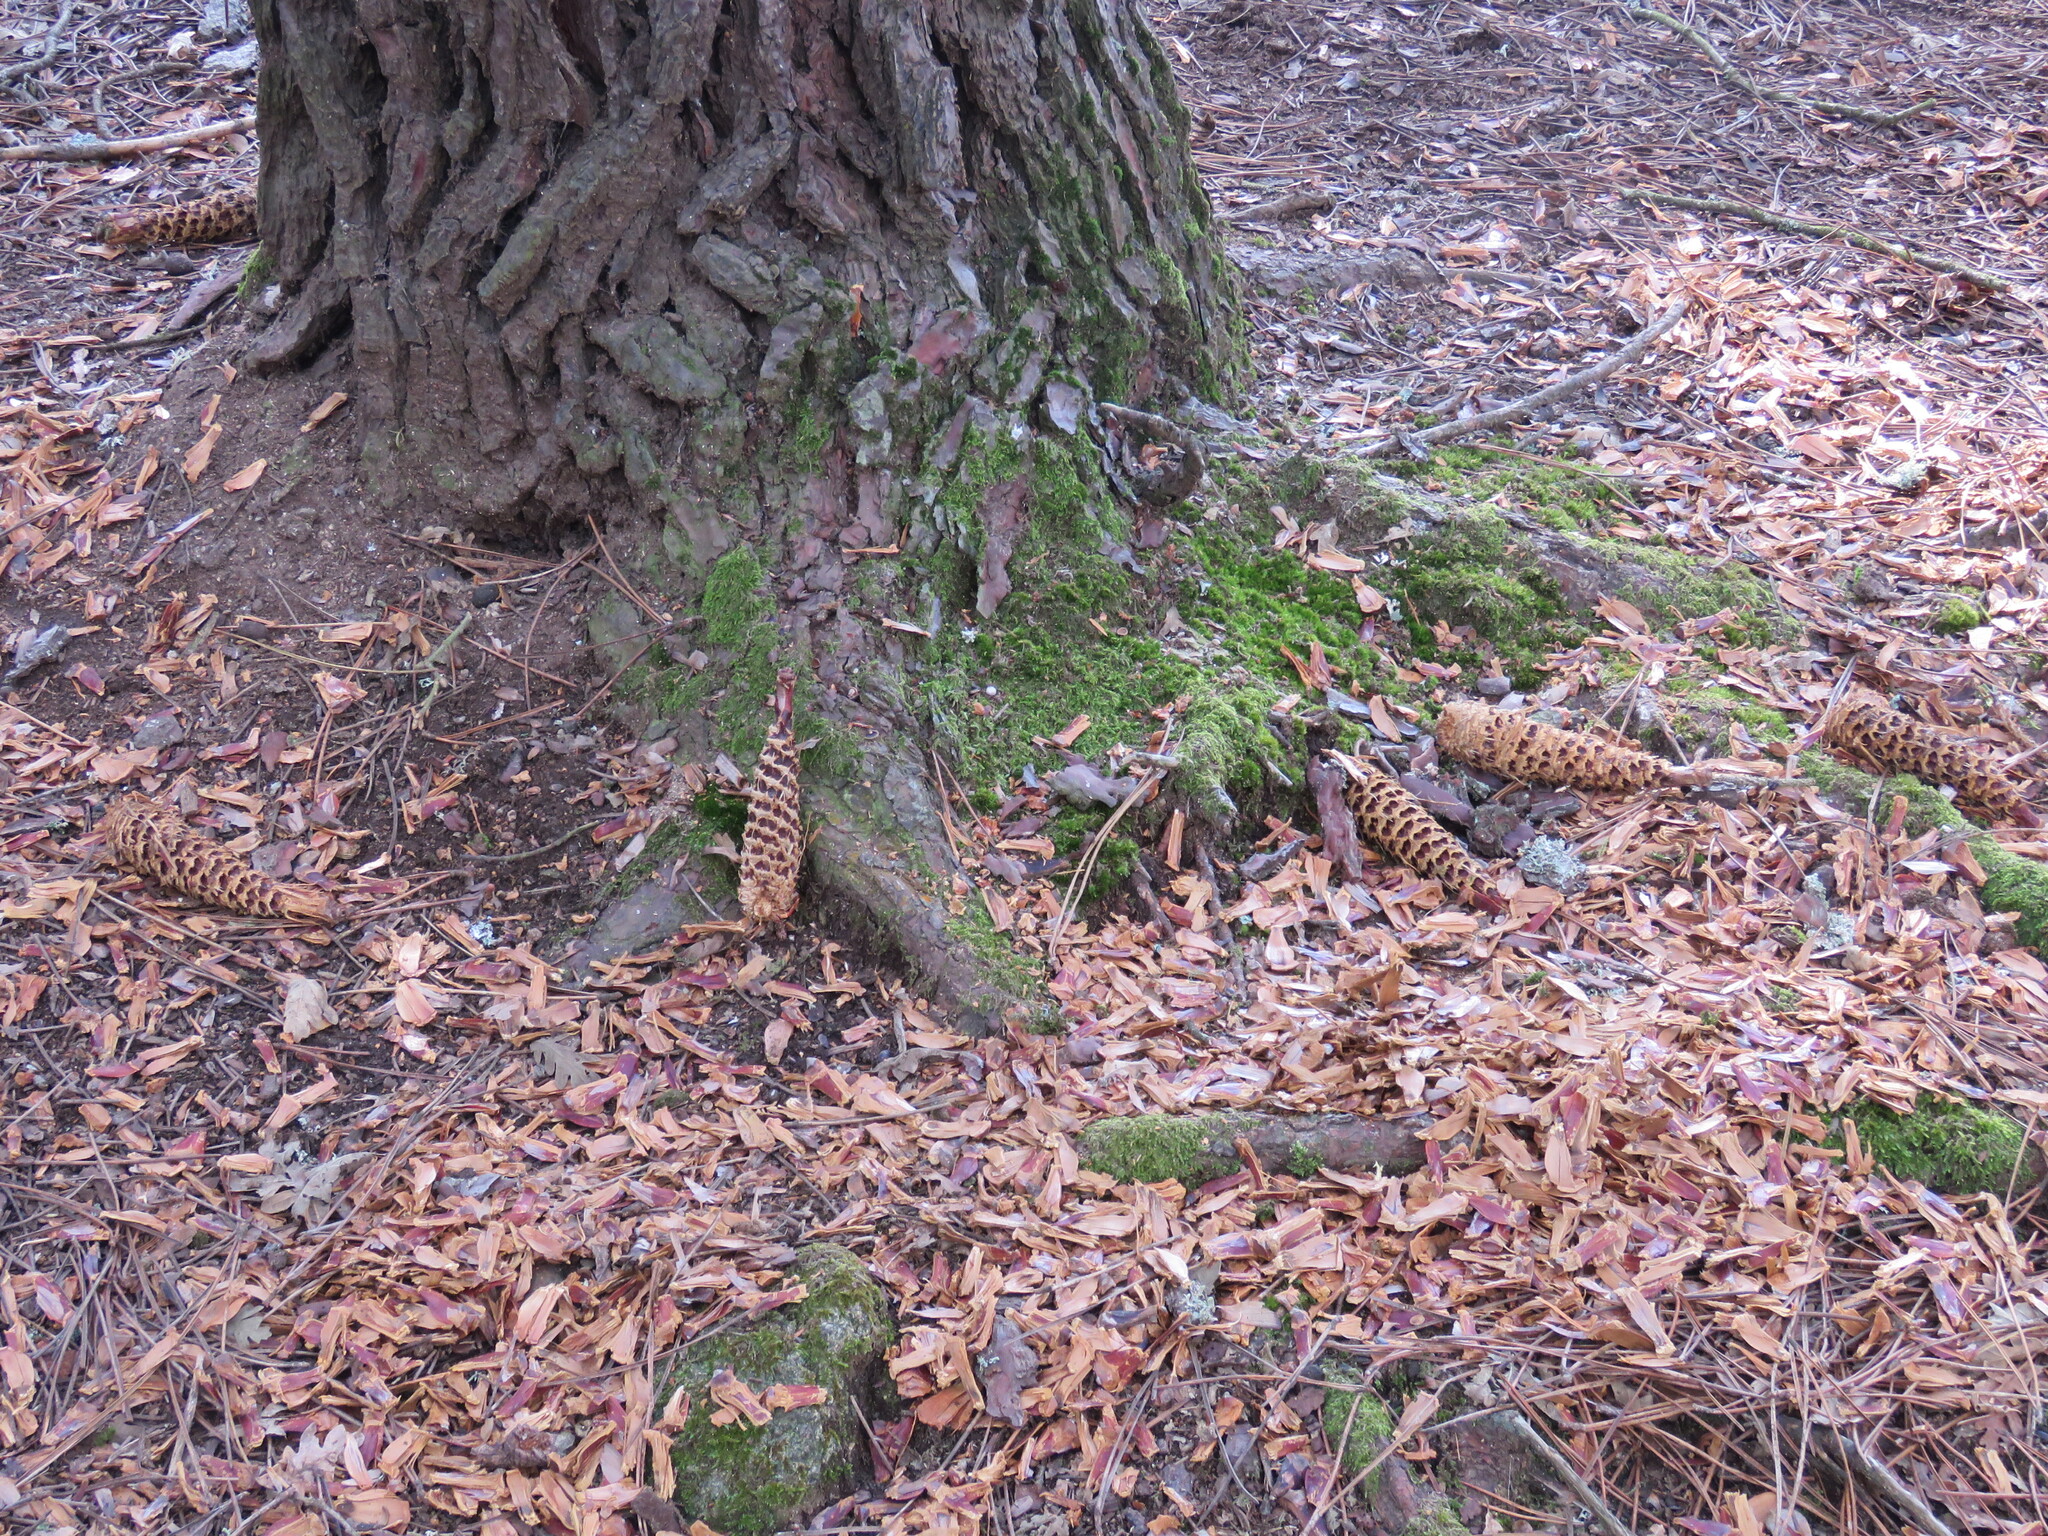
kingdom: Animalia
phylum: Chordata
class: Mammalia
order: Rodentia
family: Sciuridae
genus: Sciurus
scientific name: Sciurus vulgaris
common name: Eurasian red squirrel
